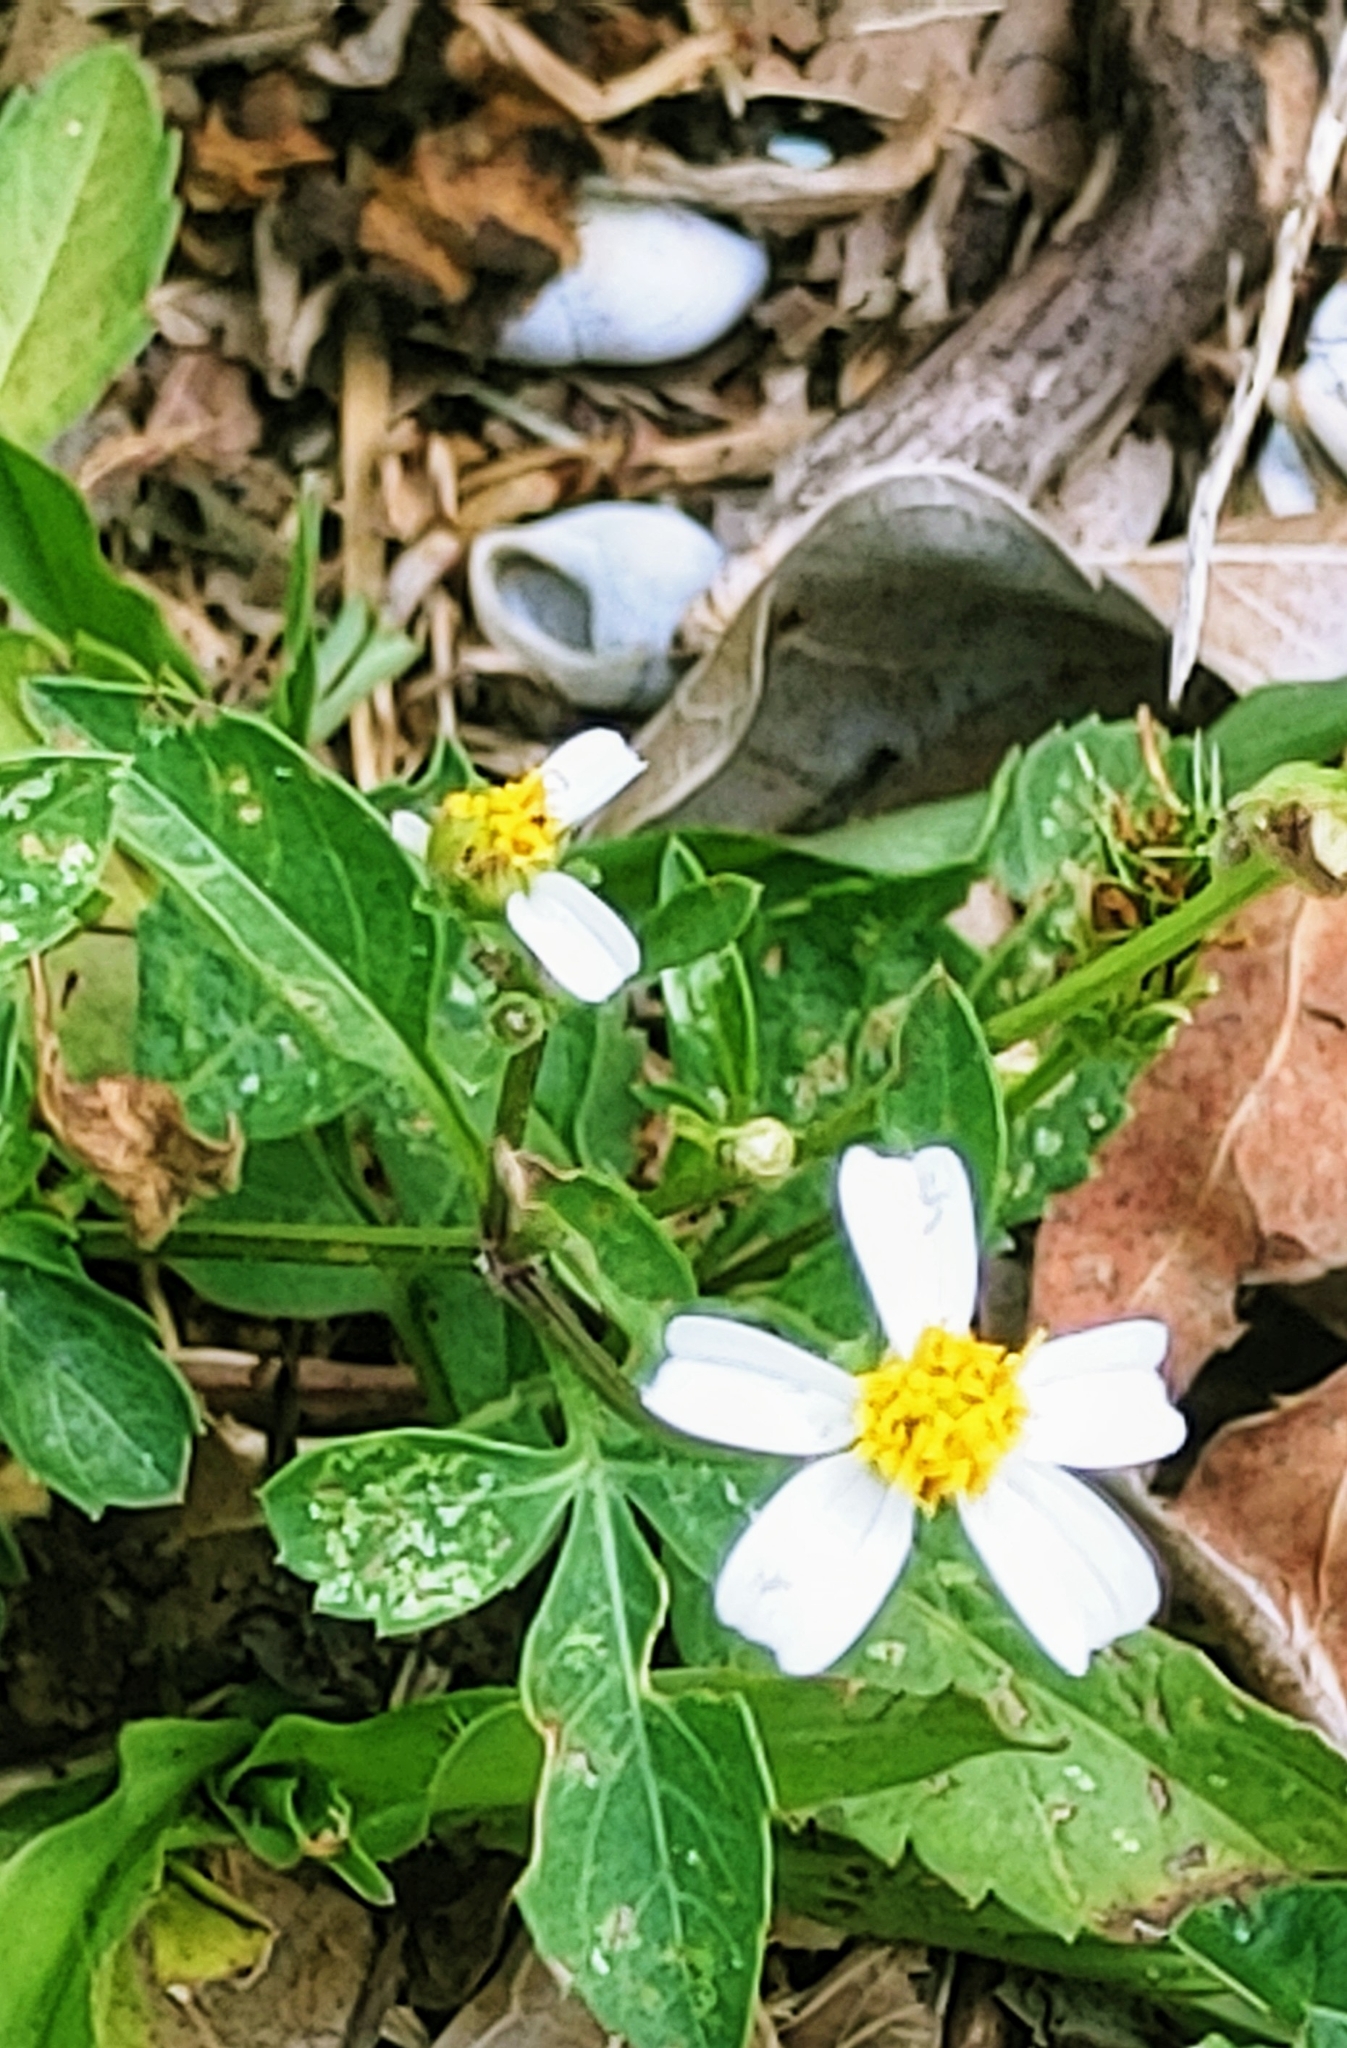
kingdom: Plantae
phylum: Tracheophyta
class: Magnoliopsida
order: Asterales
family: Asteraceae
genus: Bidens
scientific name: Bidens alba
